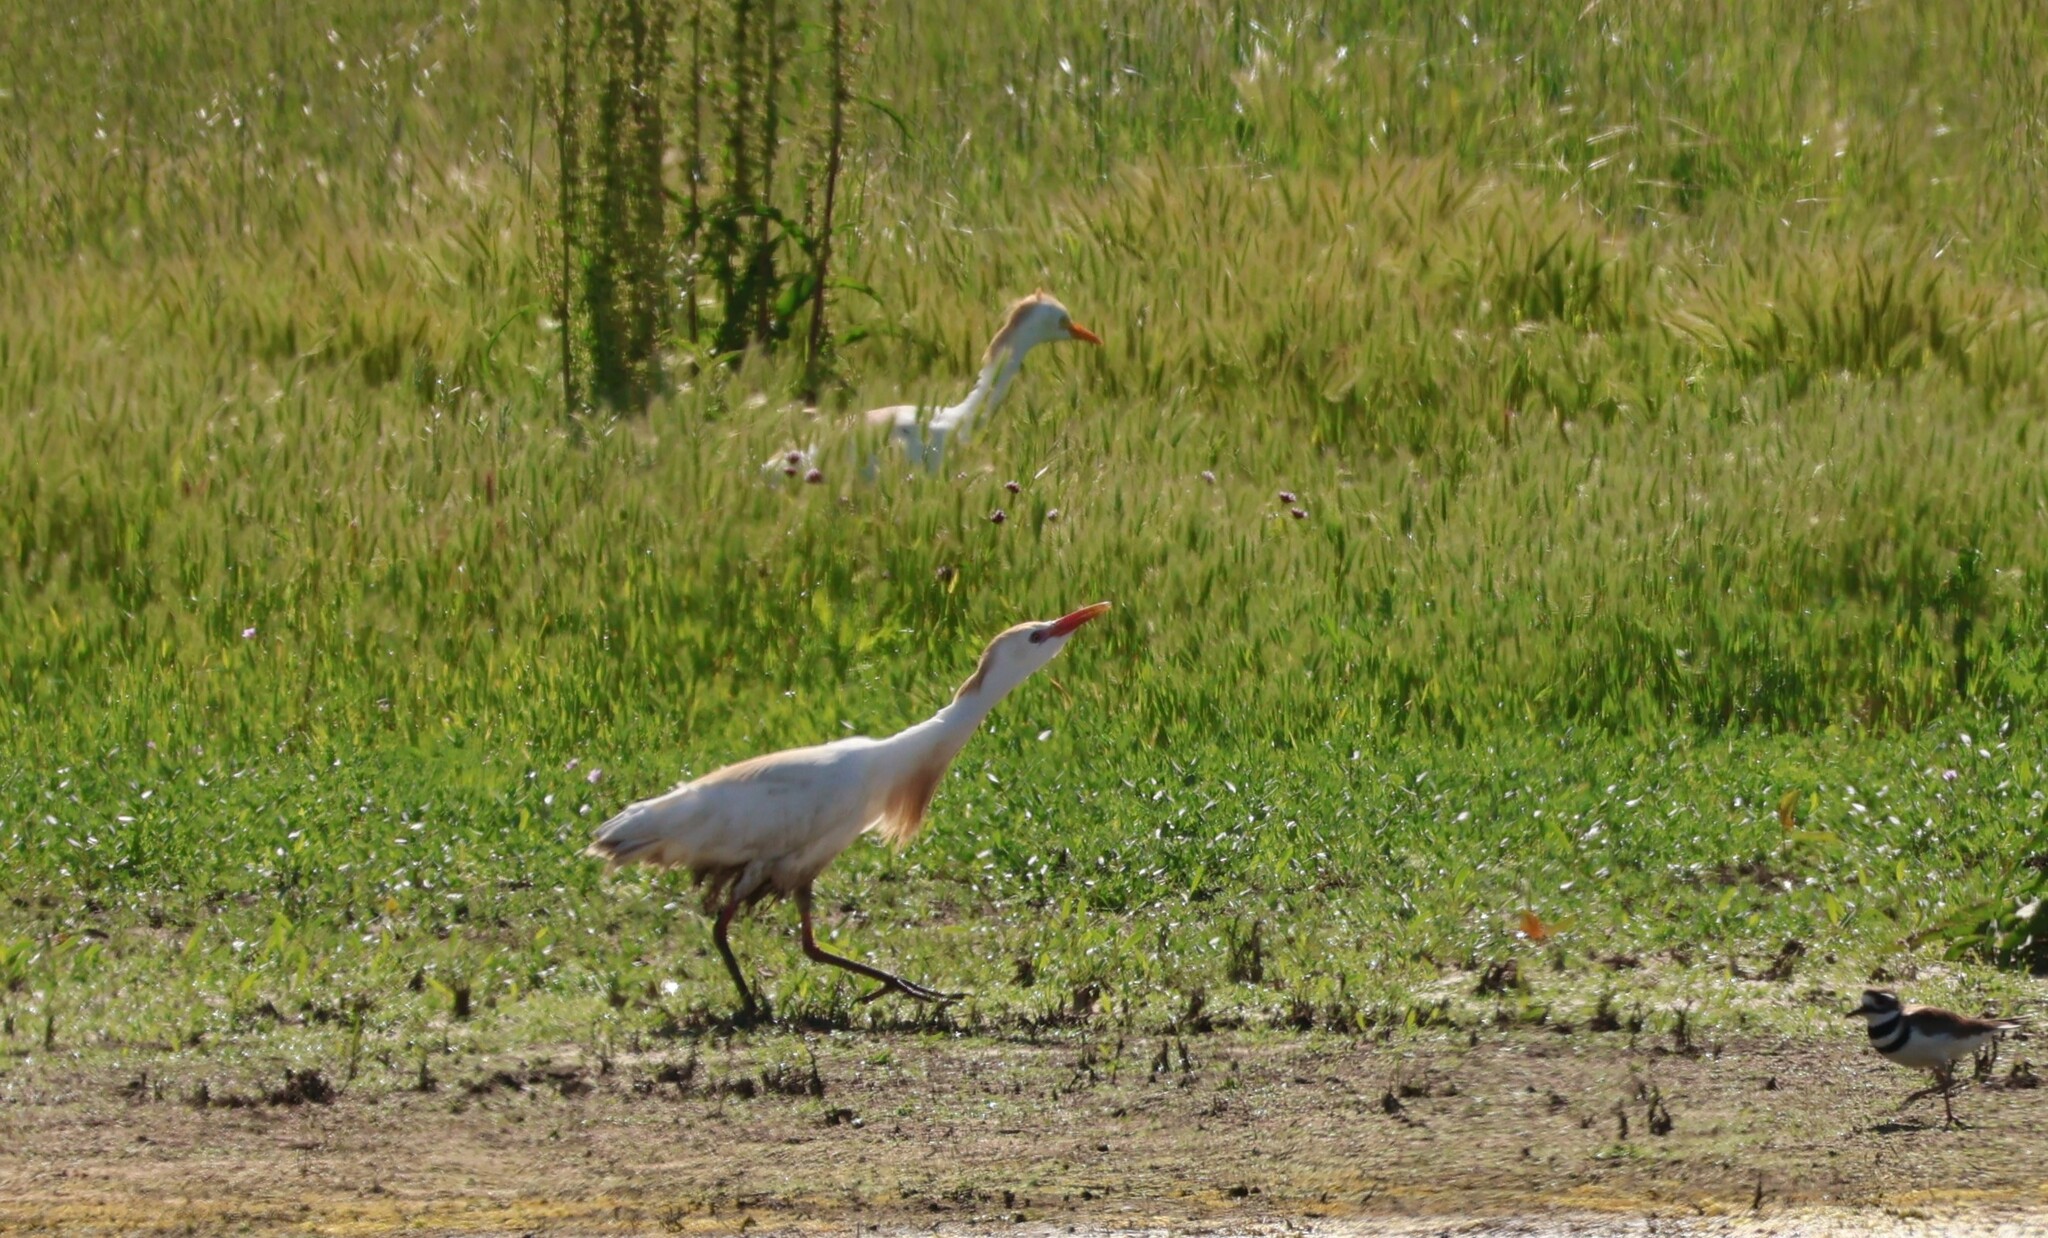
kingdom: Animalia
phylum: Chordata
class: Aves
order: Pelecaniformes
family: Ardeidae
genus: Bubulcus
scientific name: Bubulcus ibis
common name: Cattle egret
